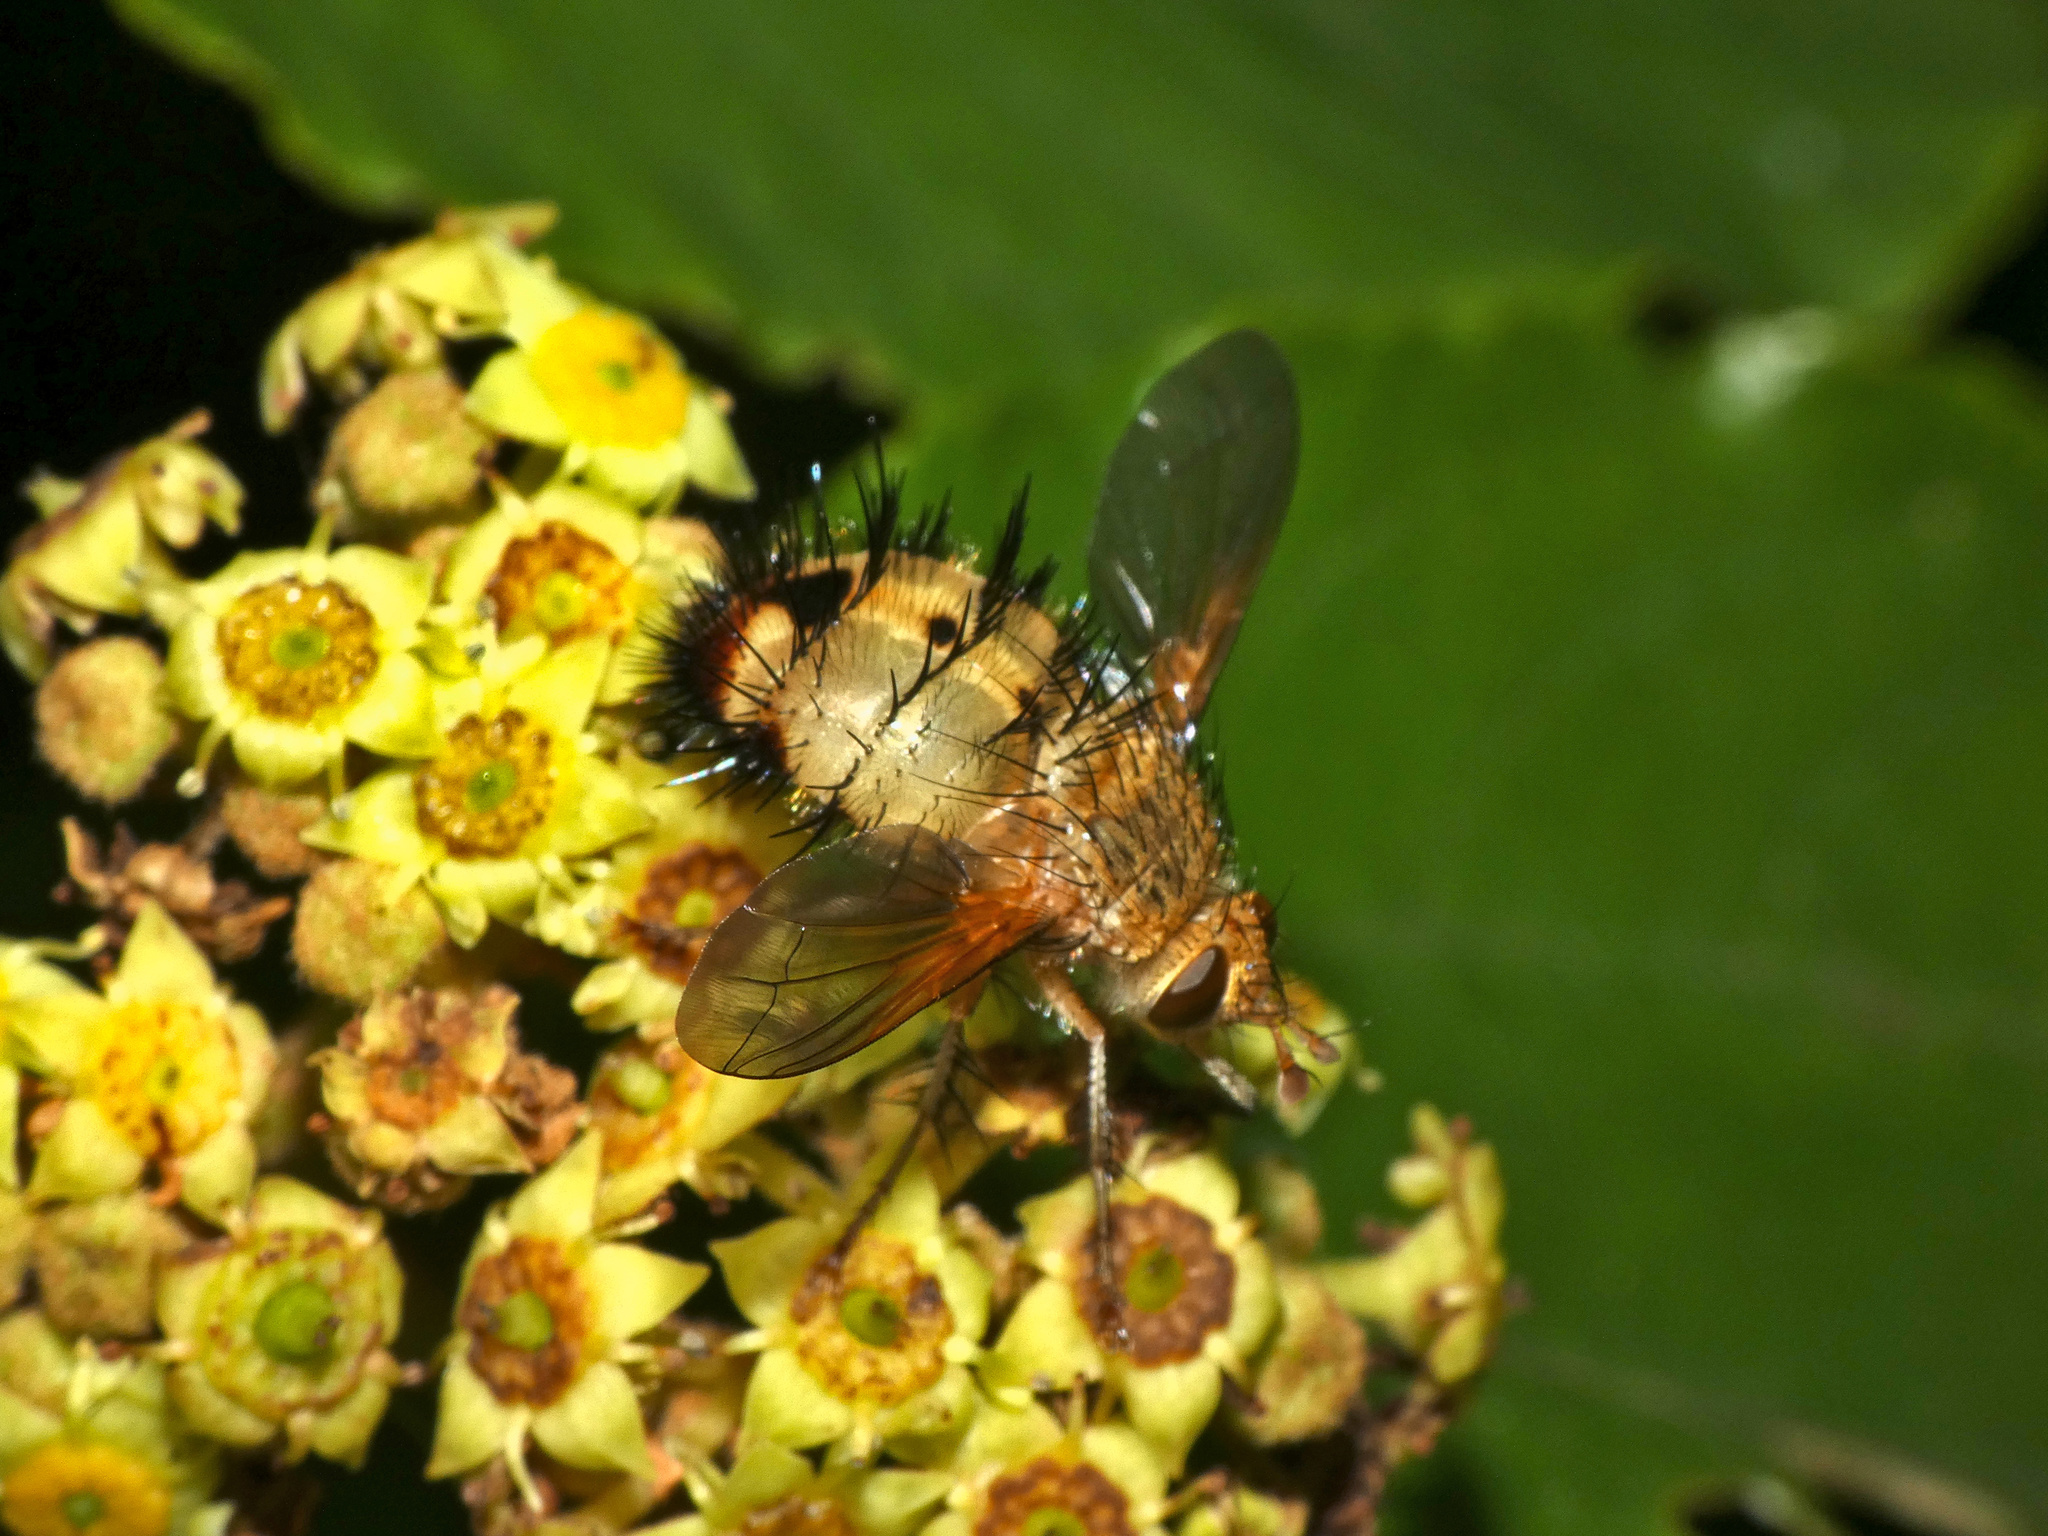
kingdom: Animalia
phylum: Arthropoda
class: Insecta
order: Diptera
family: Tachinidae
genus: Dejeania
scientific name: Dejeania bombylans
